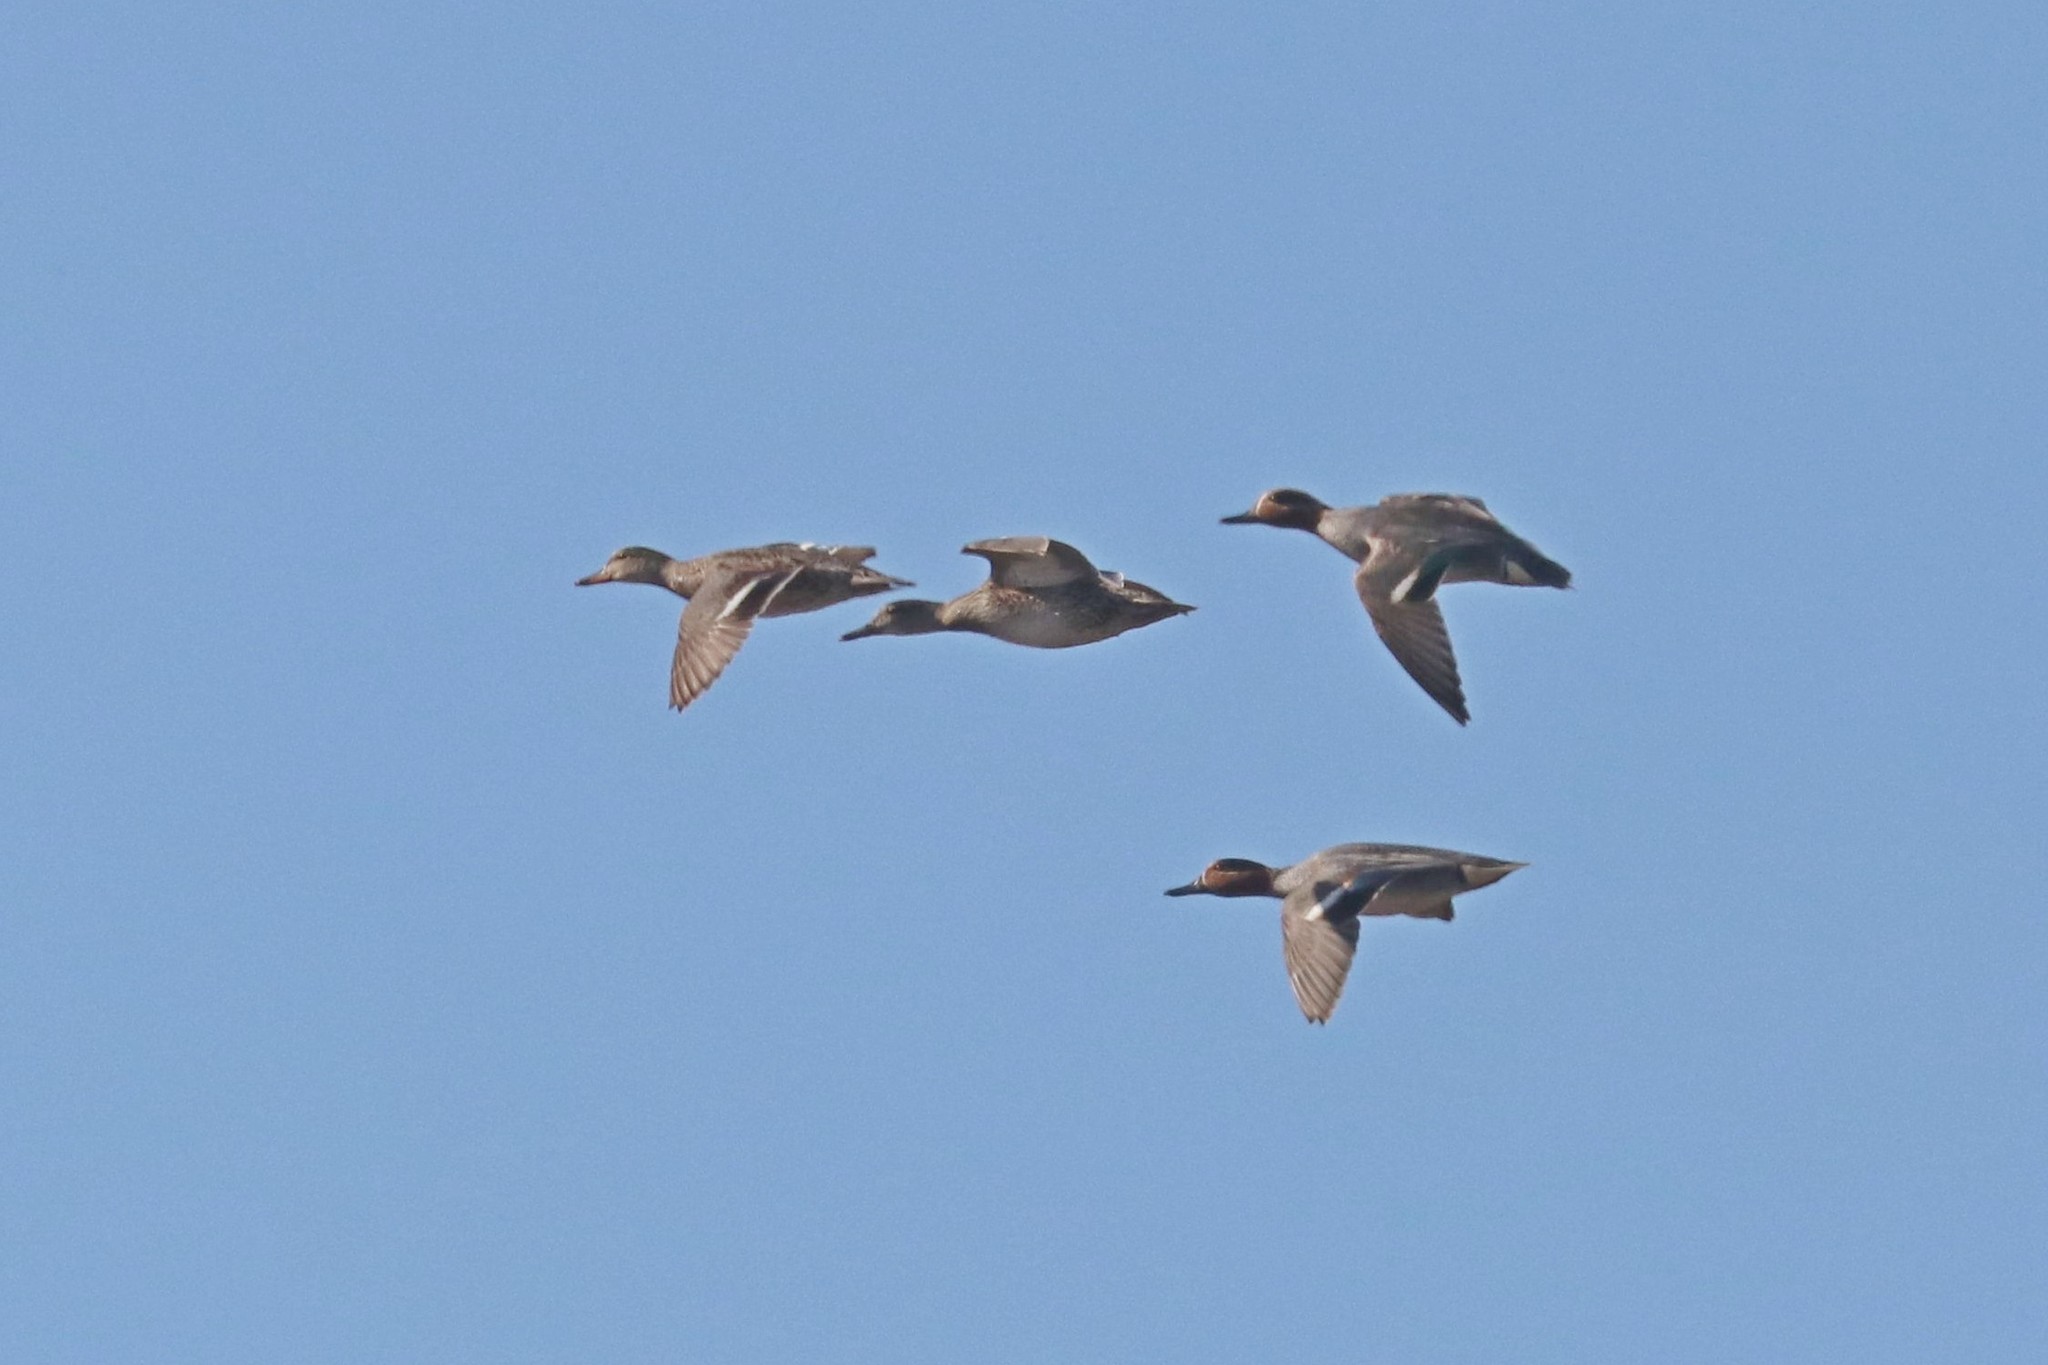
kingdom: Animalia
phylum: Chordata
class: Aves
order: Anseriformes
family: Anatidae
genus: Anas
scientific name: Anas crecca
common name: Eurasian teal
